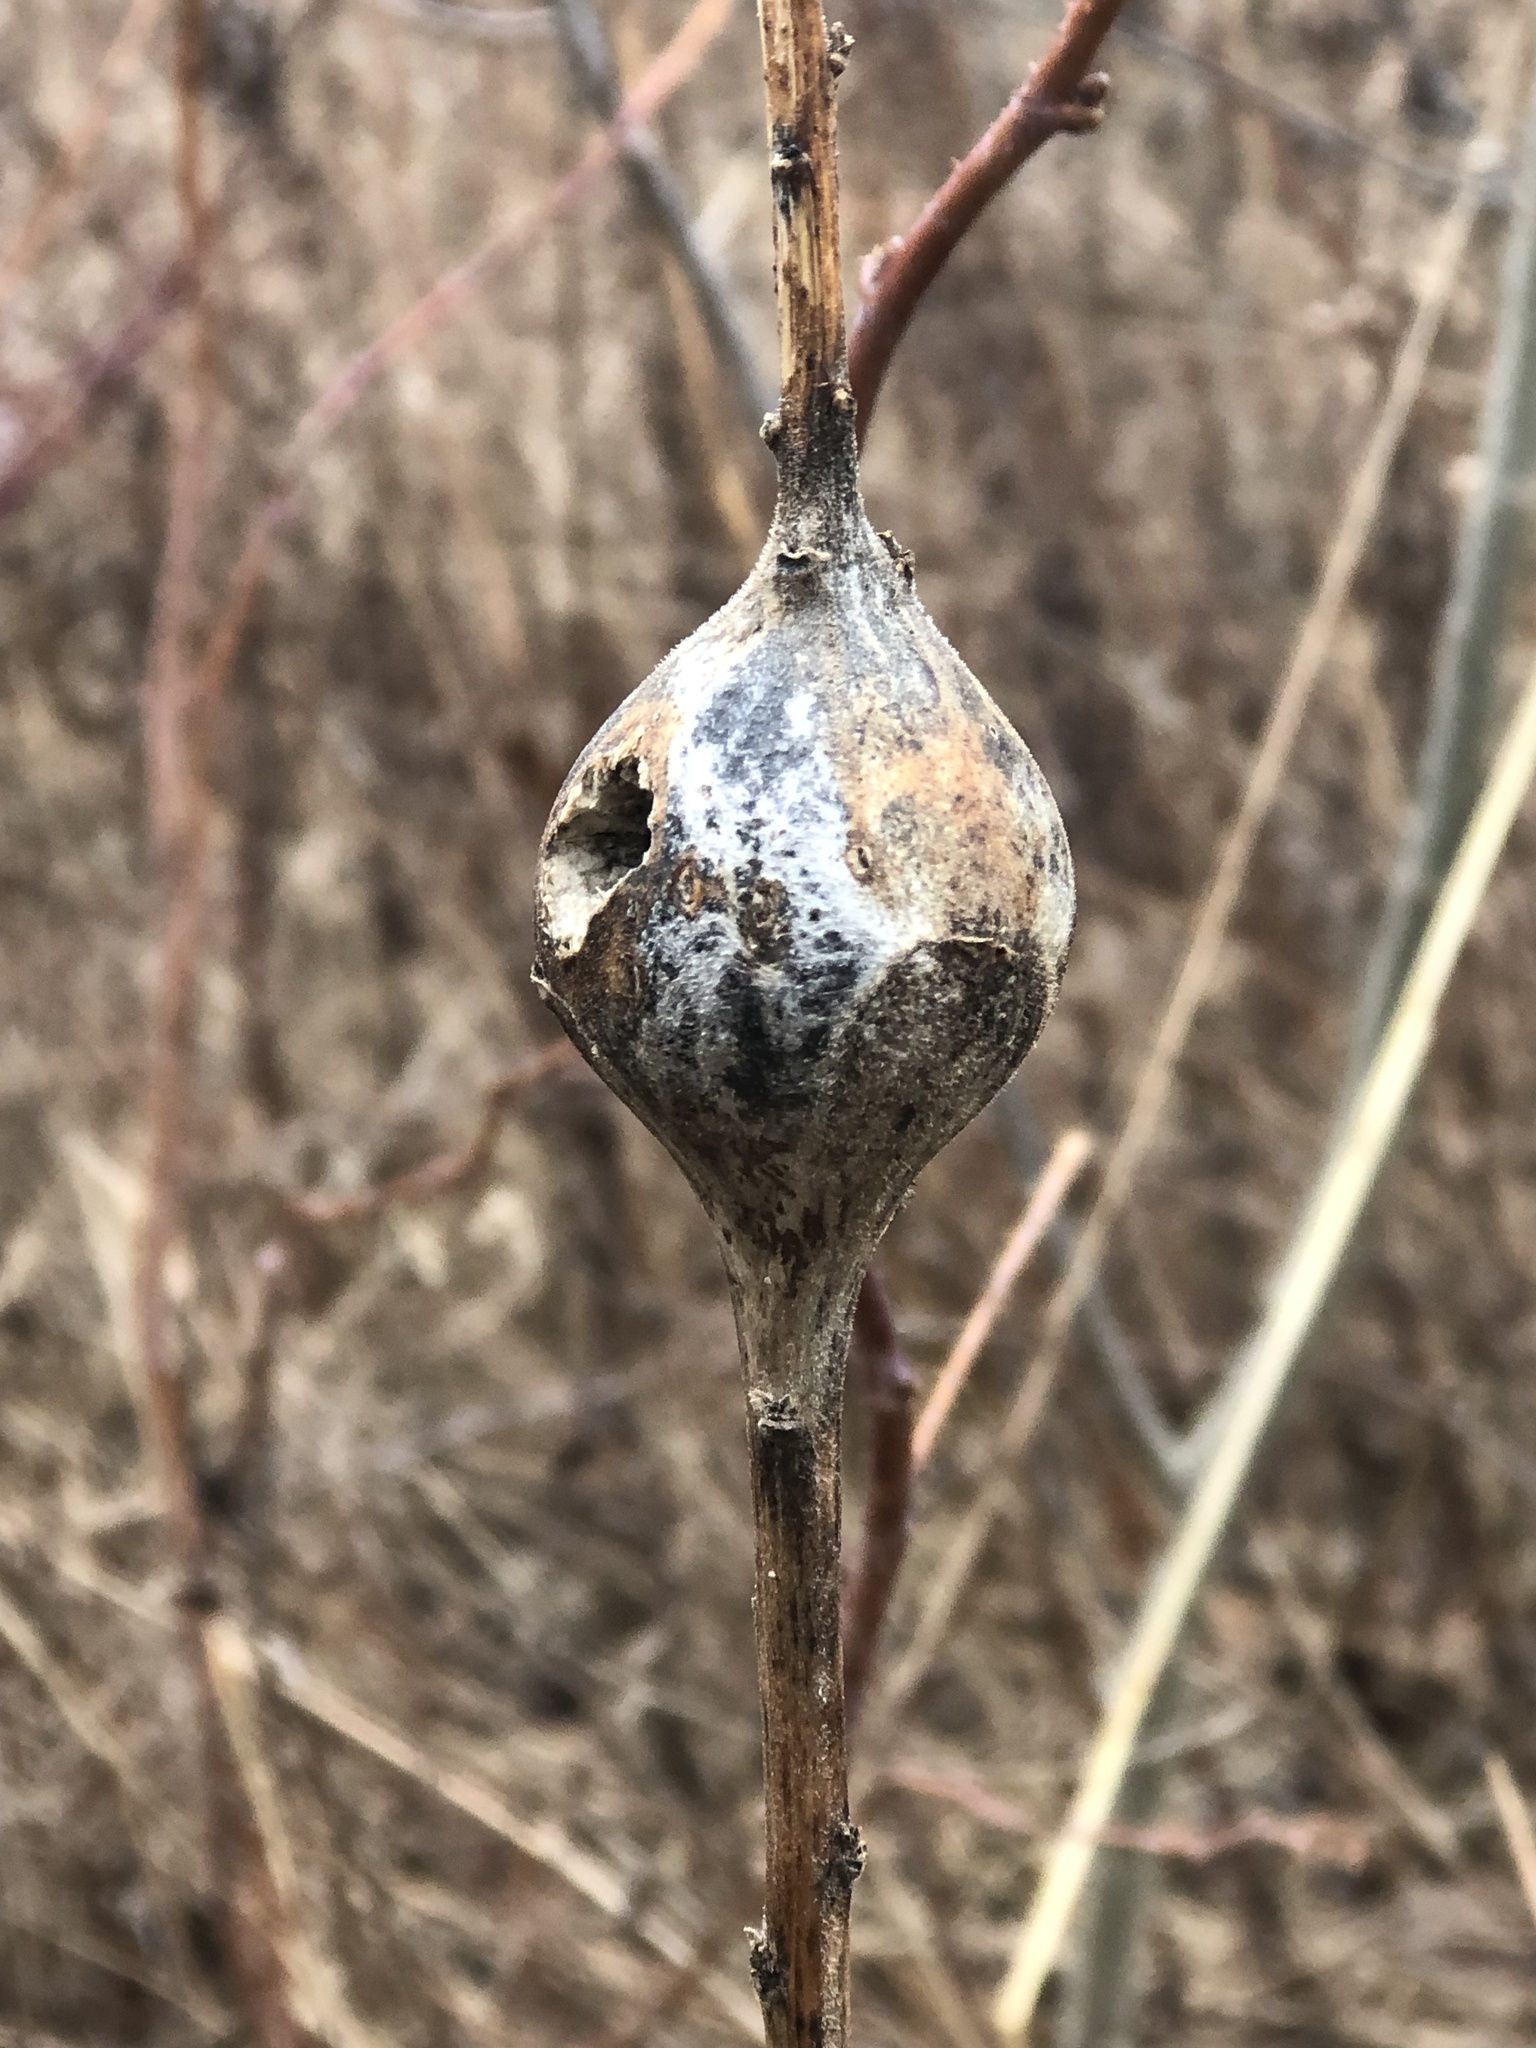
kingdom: Animalia
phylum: Arthropoda
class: Insecta
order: Diptera
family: Tephritidae
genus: Eurosta
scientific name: Eurosta solidaginis
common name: Goldenrod gall fly
